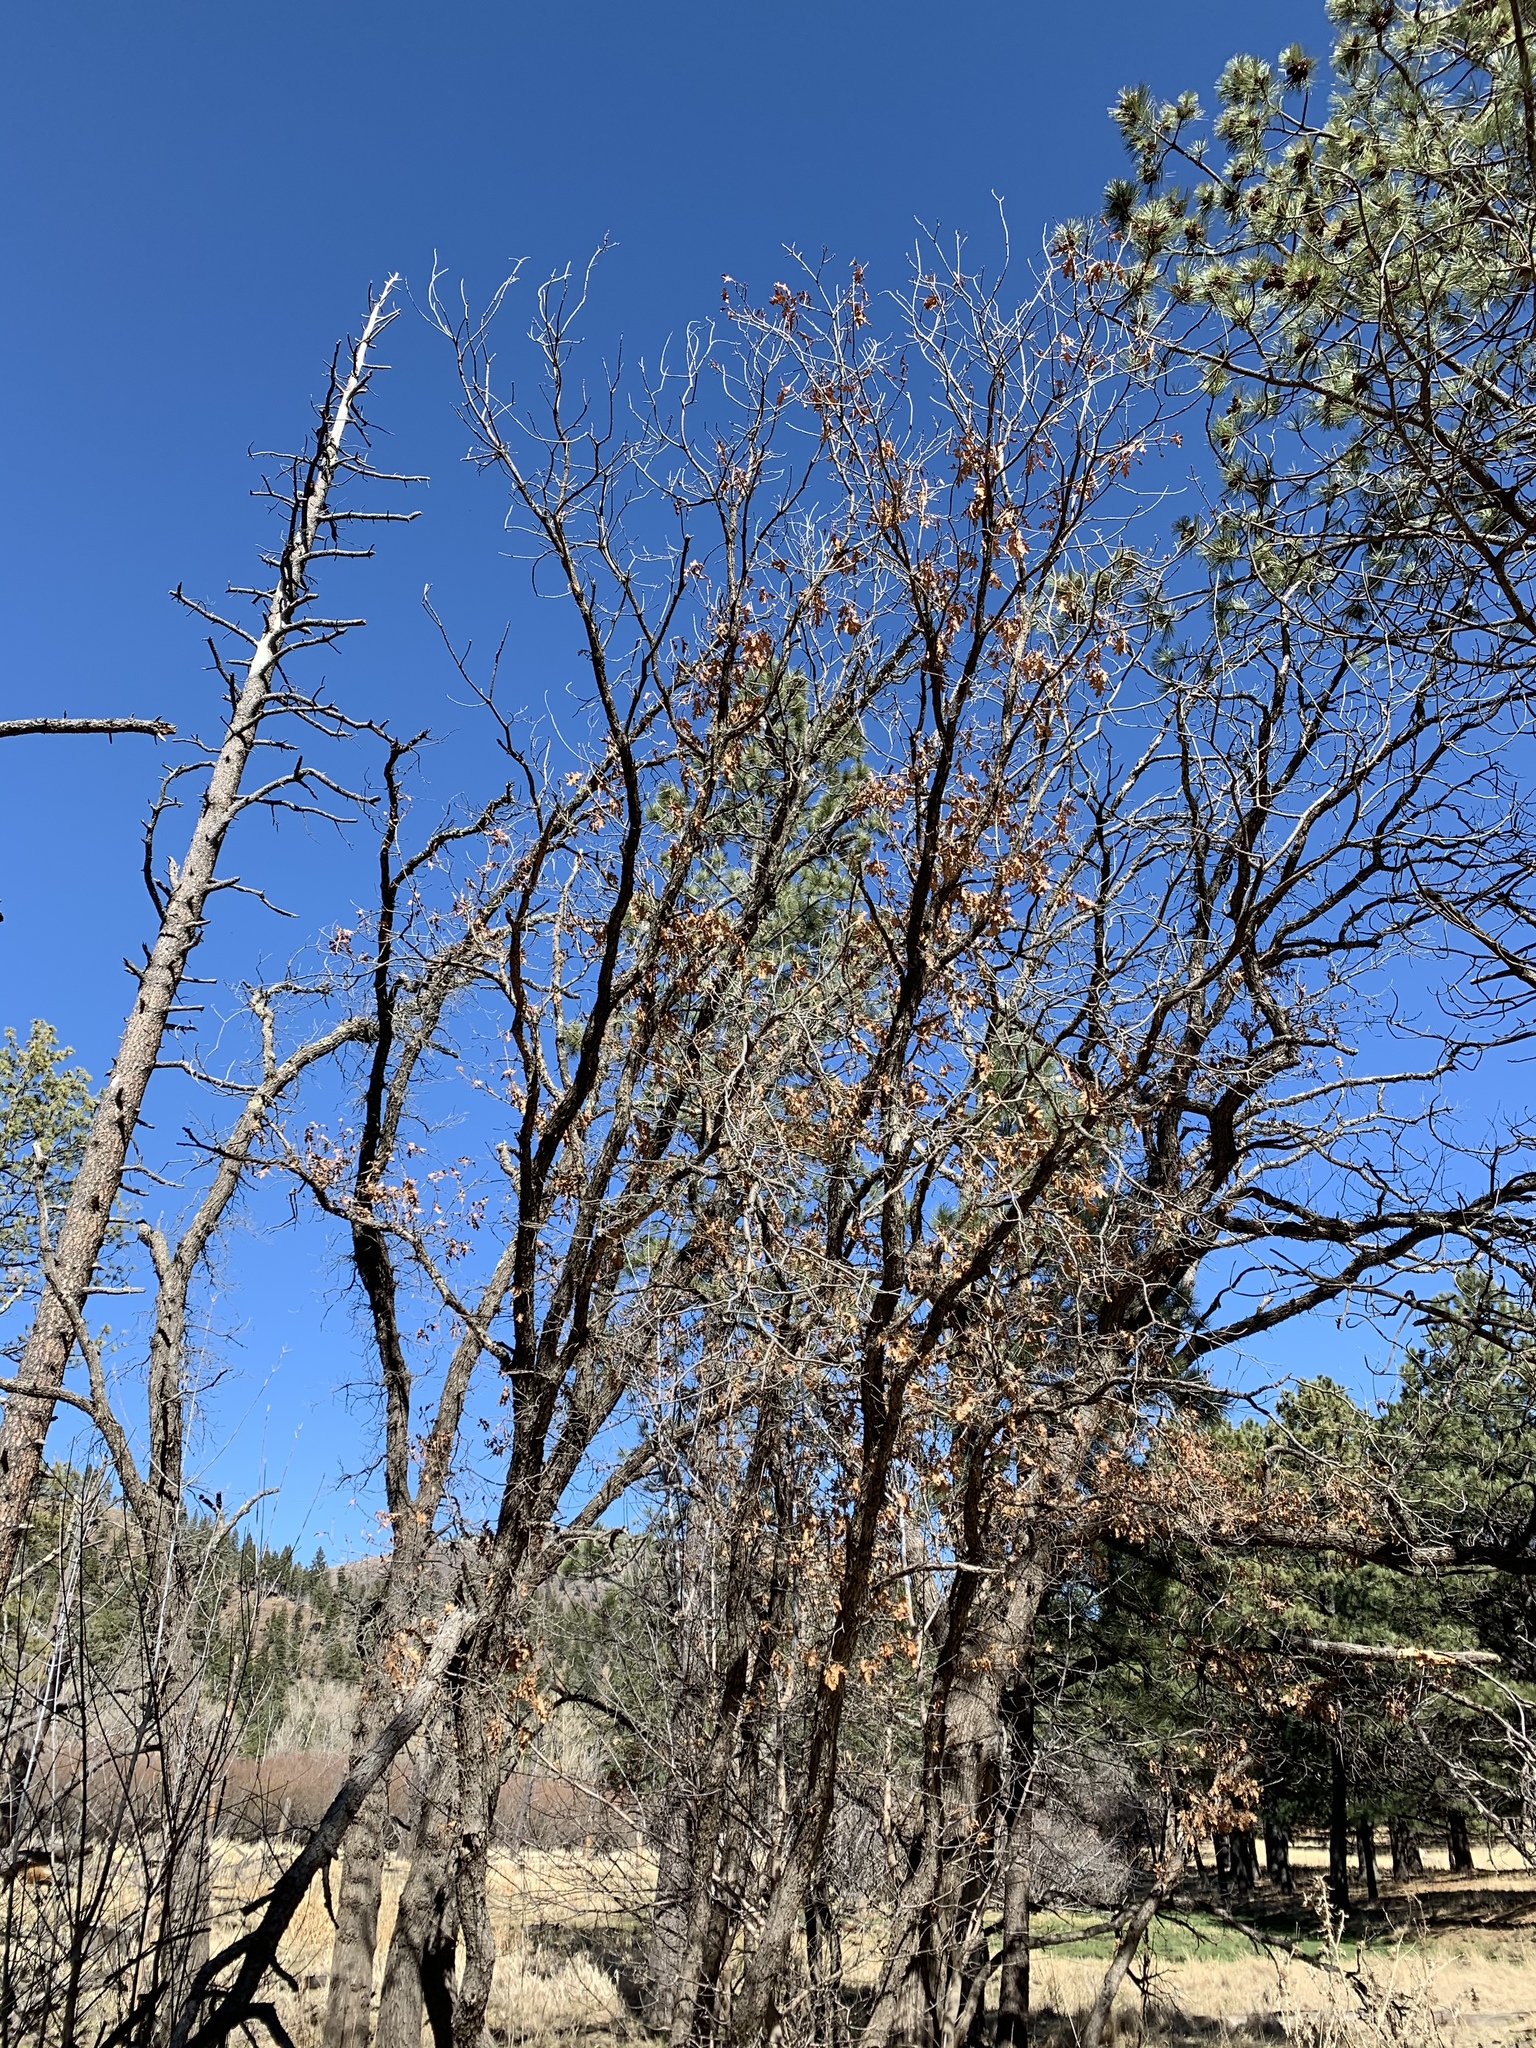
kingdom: Plantae
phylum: Tracheophyta
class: Magnoliopsida
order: Fagales
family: Fagaceae
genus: Quercus
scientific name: Quercus gambelii
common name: Gambel oak
